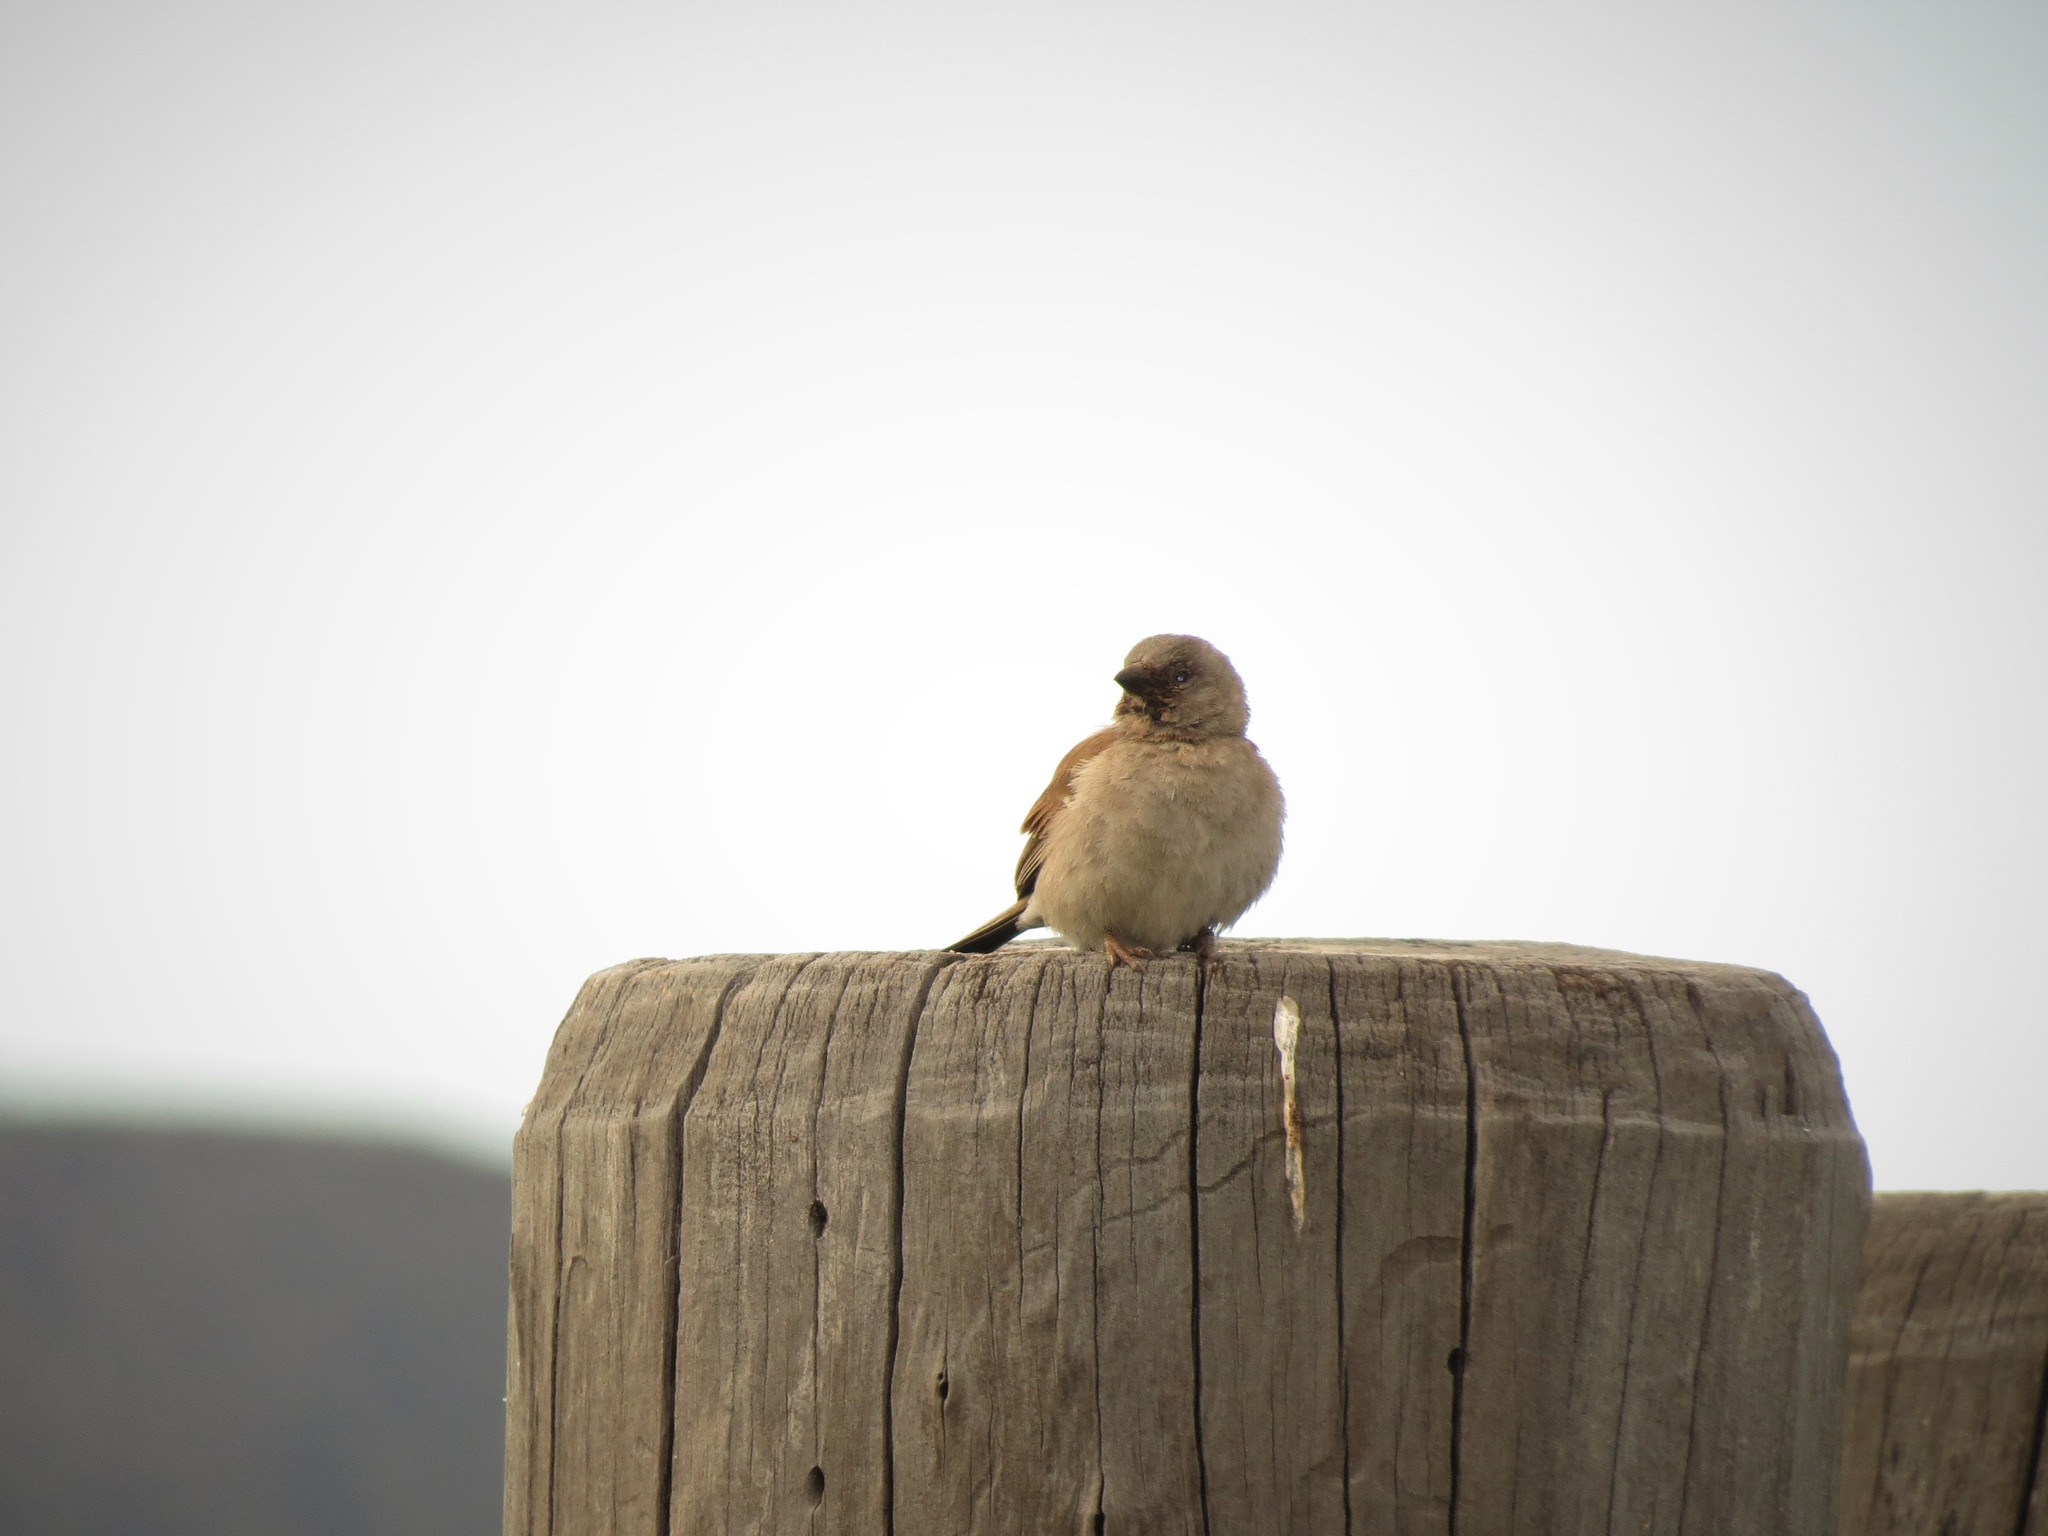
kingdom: Animalia
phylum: Chordata
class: Aves
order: Passeriformes
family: Passeridae
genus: Passer
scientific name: Passer diffusus
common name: Southern grey-headed sparrow
